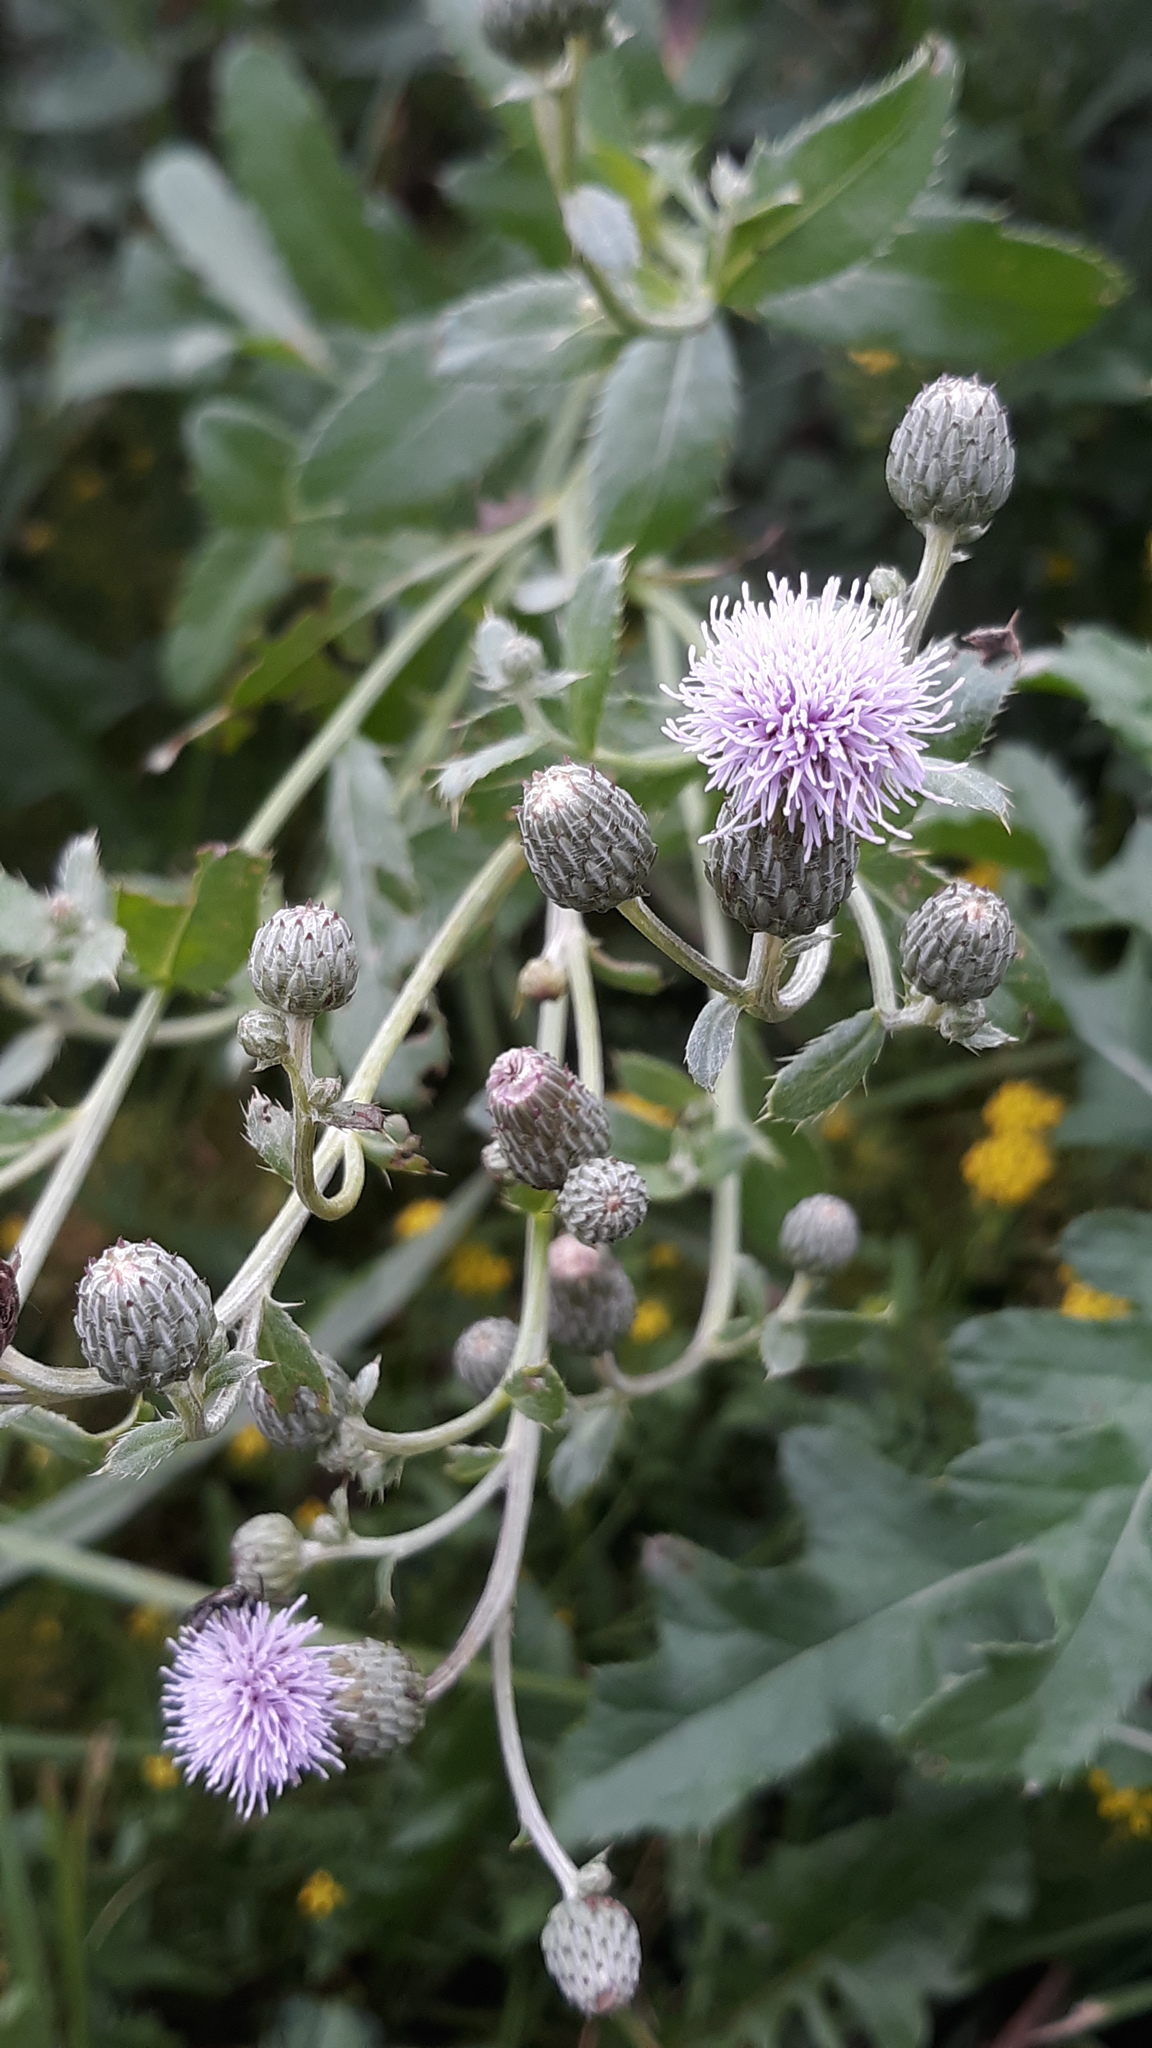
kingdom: Plantae
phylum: Tracheophyta
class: Magnoliopsida
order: Asterales
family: Asteraceae
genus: Cirsium
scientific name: Cirsium arvense
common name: Creeping thistle
